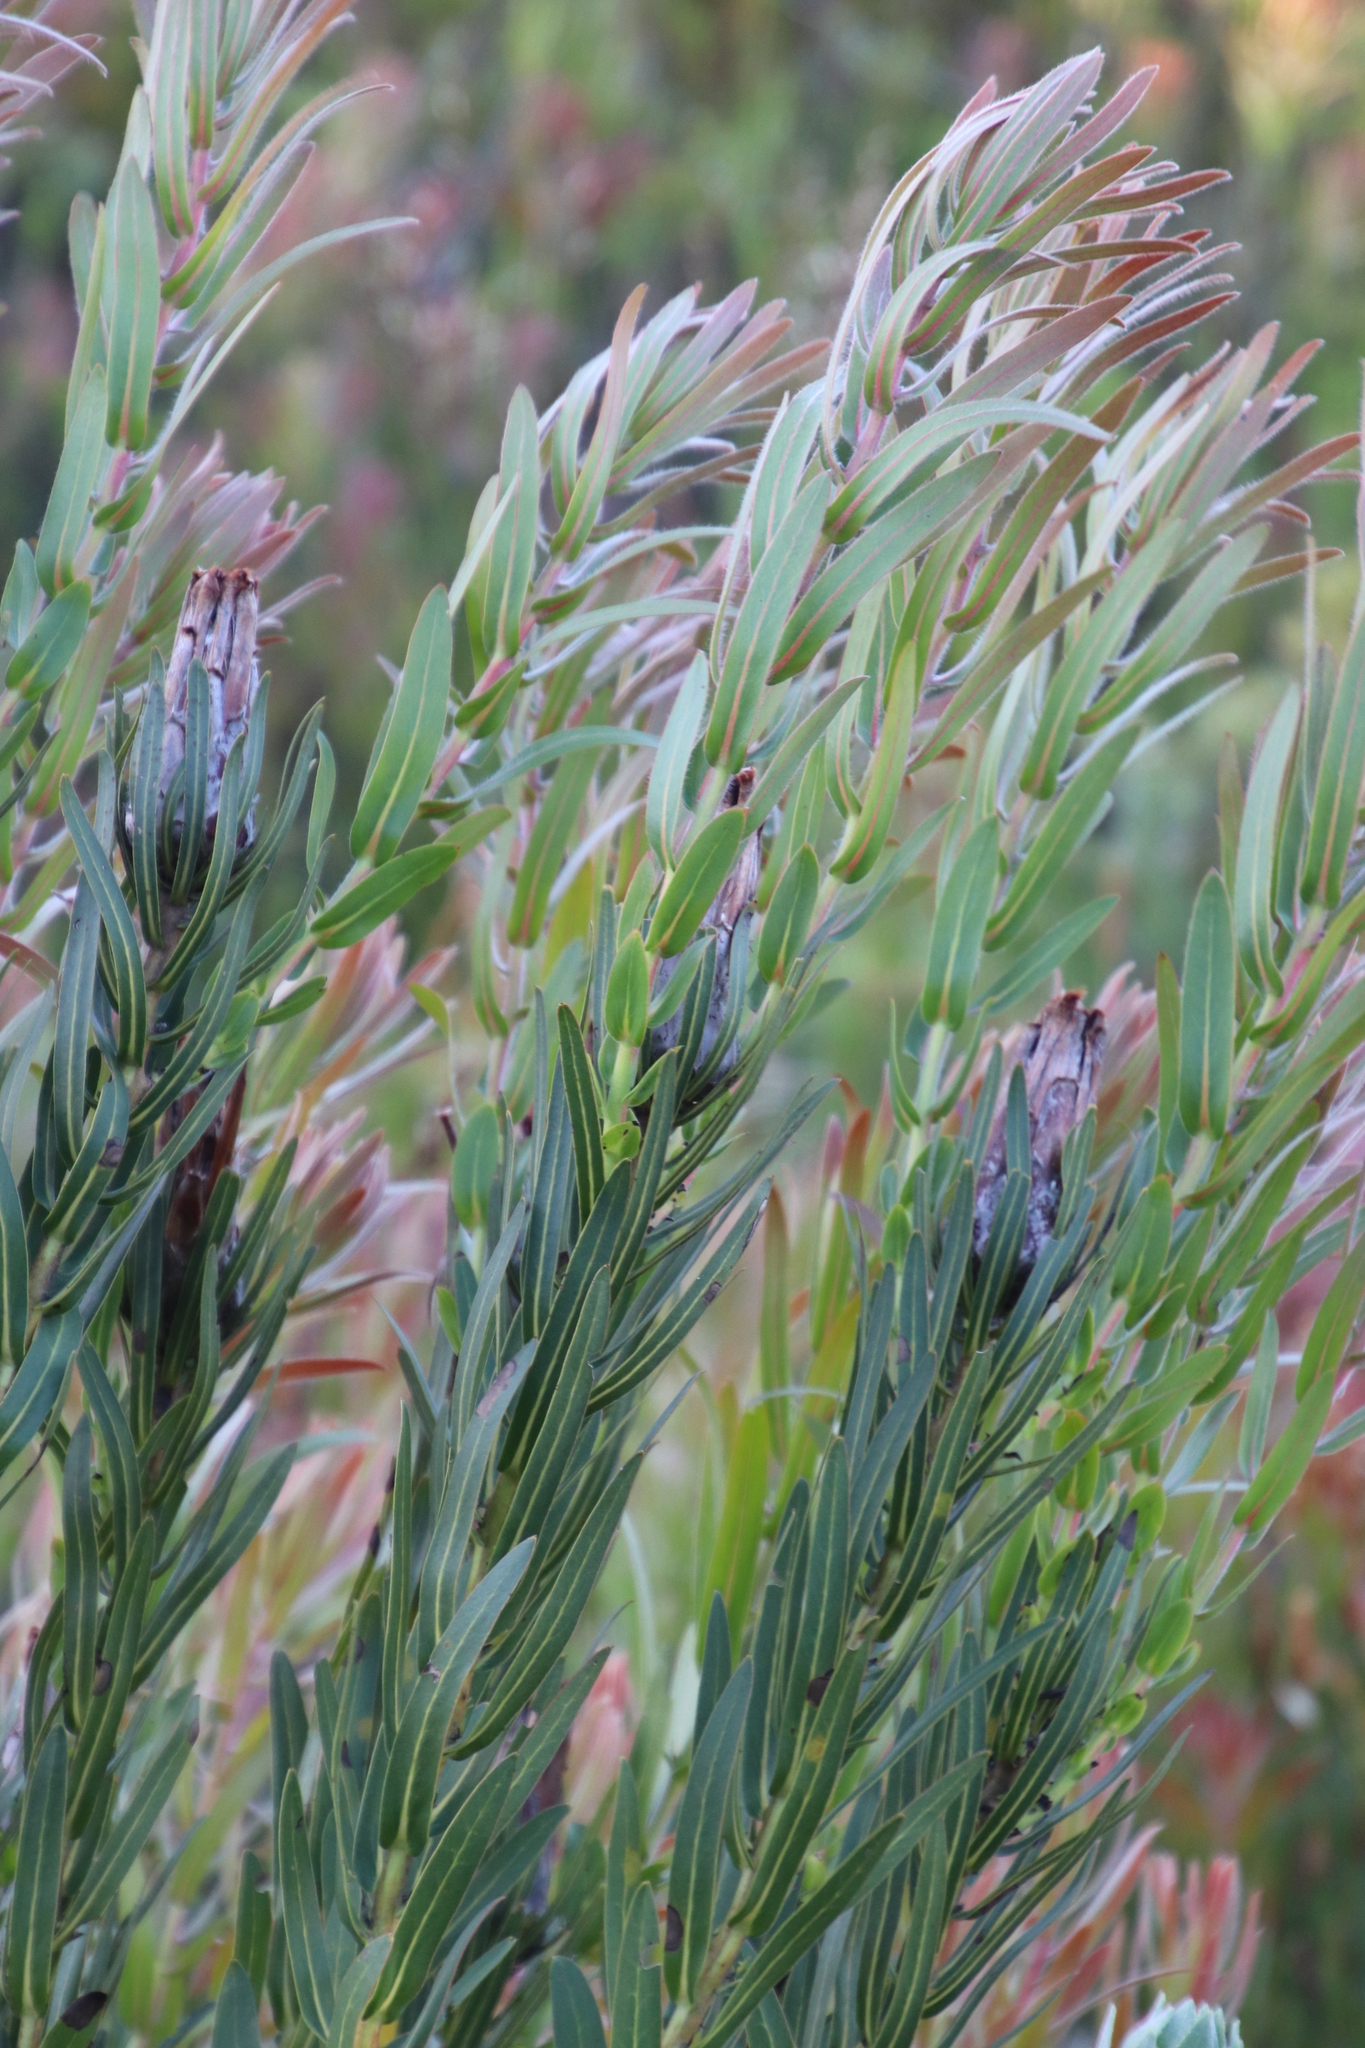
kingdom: Plantae
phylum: Tracheophyta
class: Magnoliopsida
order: Proteales
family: Proteaceae
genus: Protea
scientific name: Protea lepidocarpodendron
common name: Black-bearded protea
